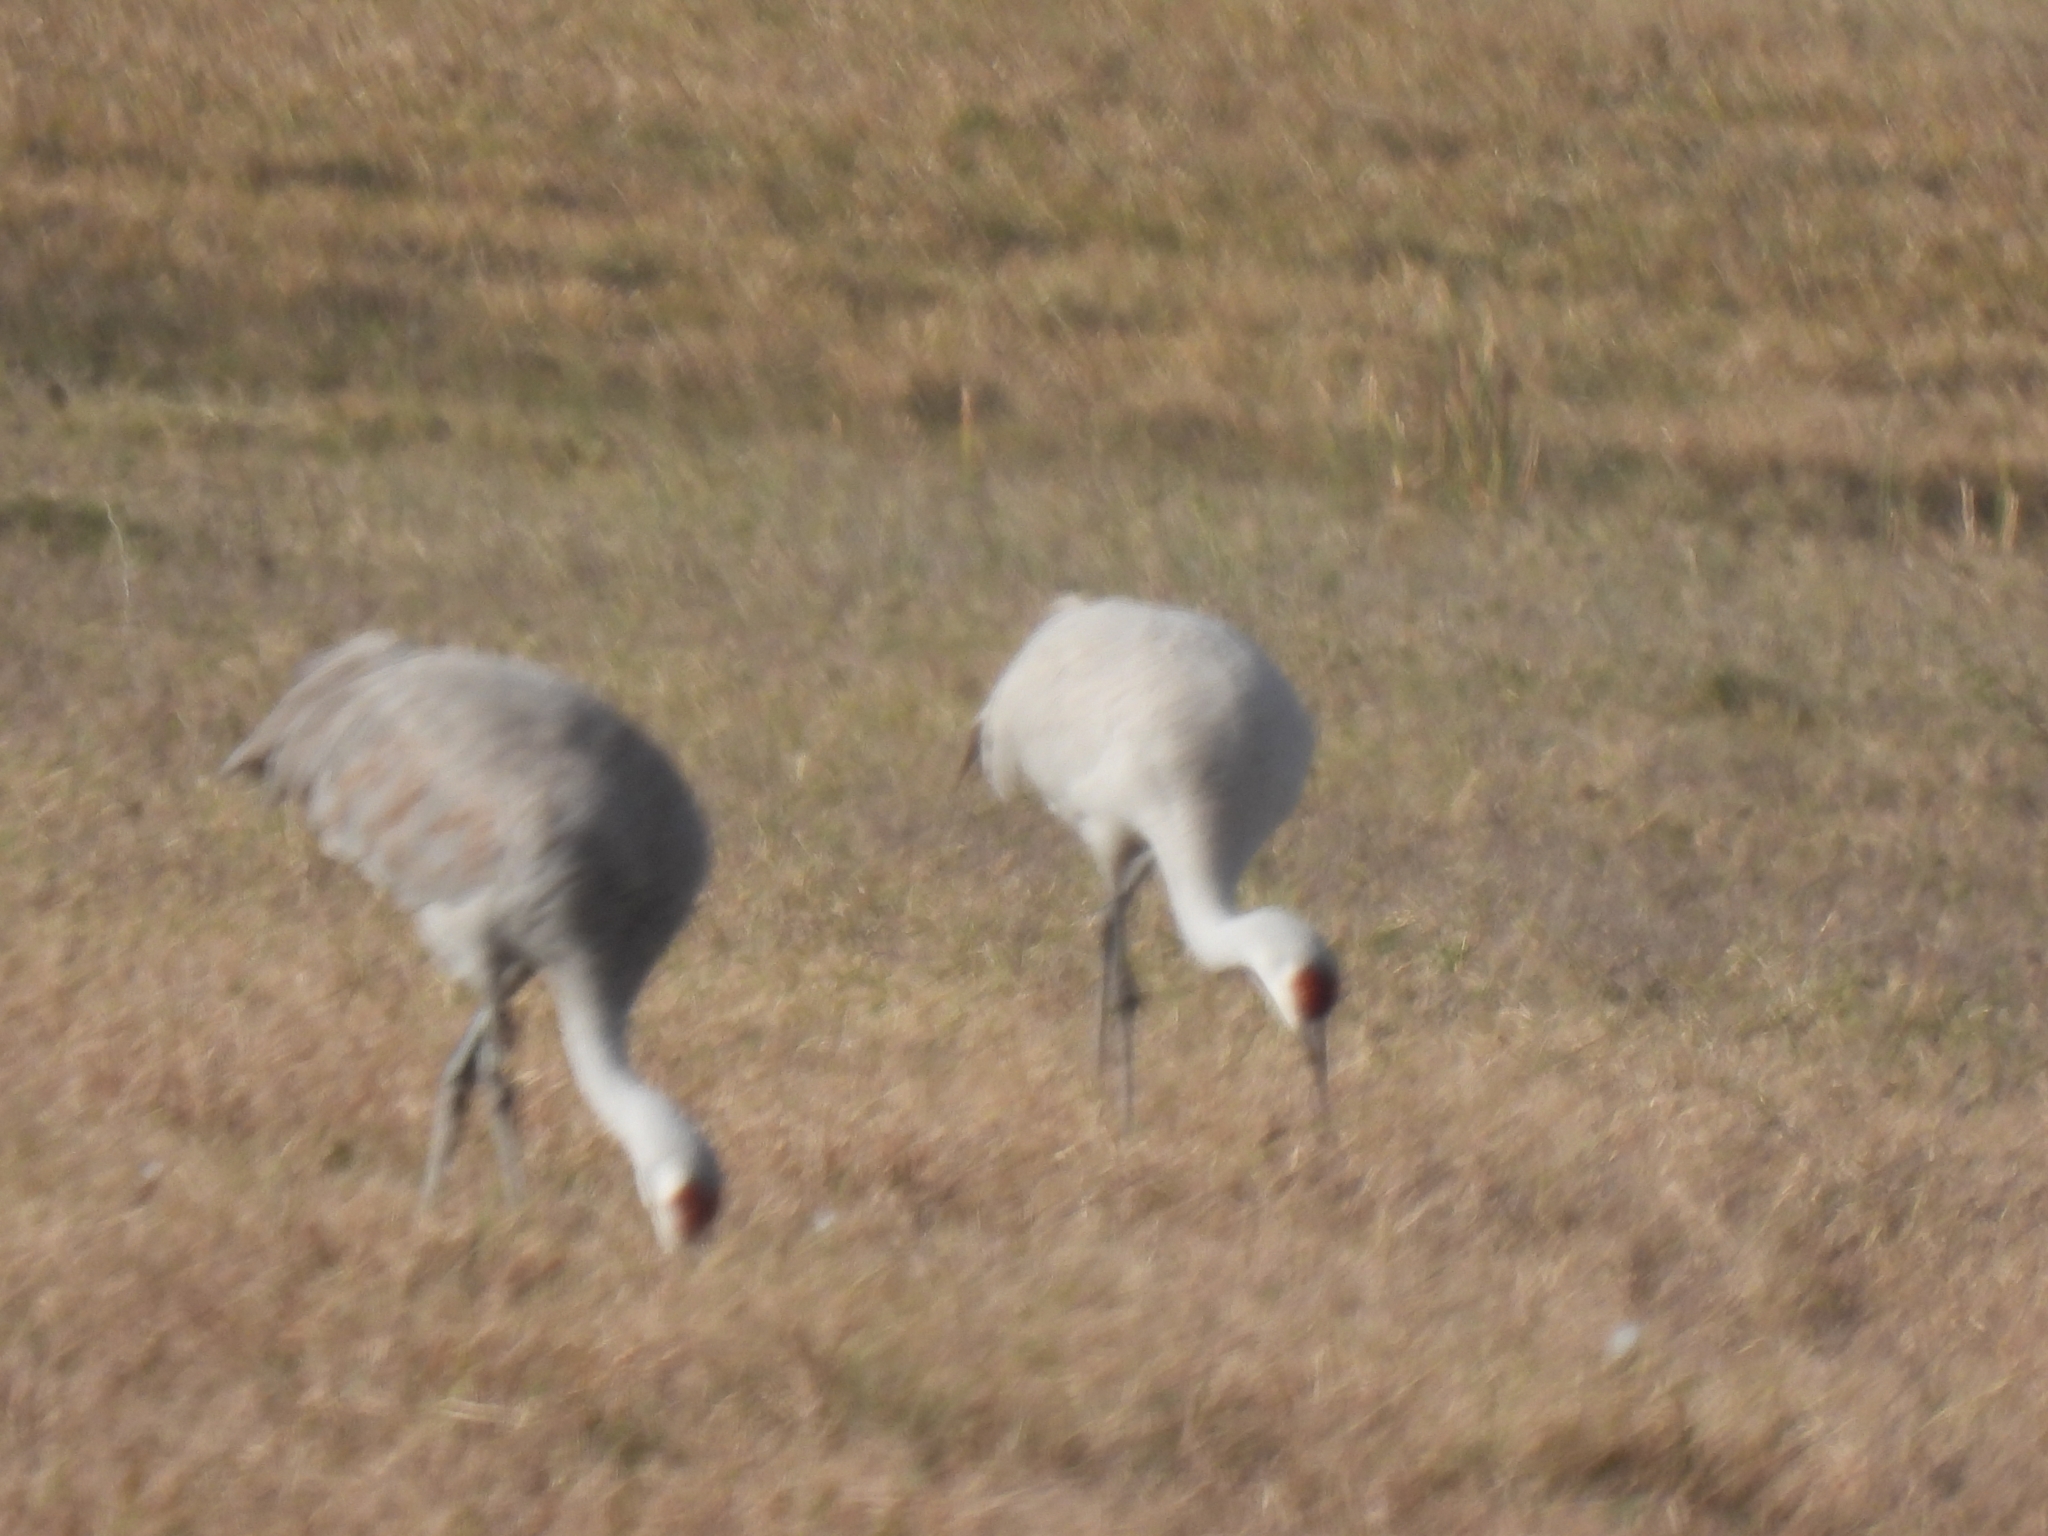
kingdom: Animalia
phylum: Chordata
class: Aves
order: Gruiformes
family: Gruidae
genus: Grus
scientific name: Grus canadensis
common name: Sandhill crane
